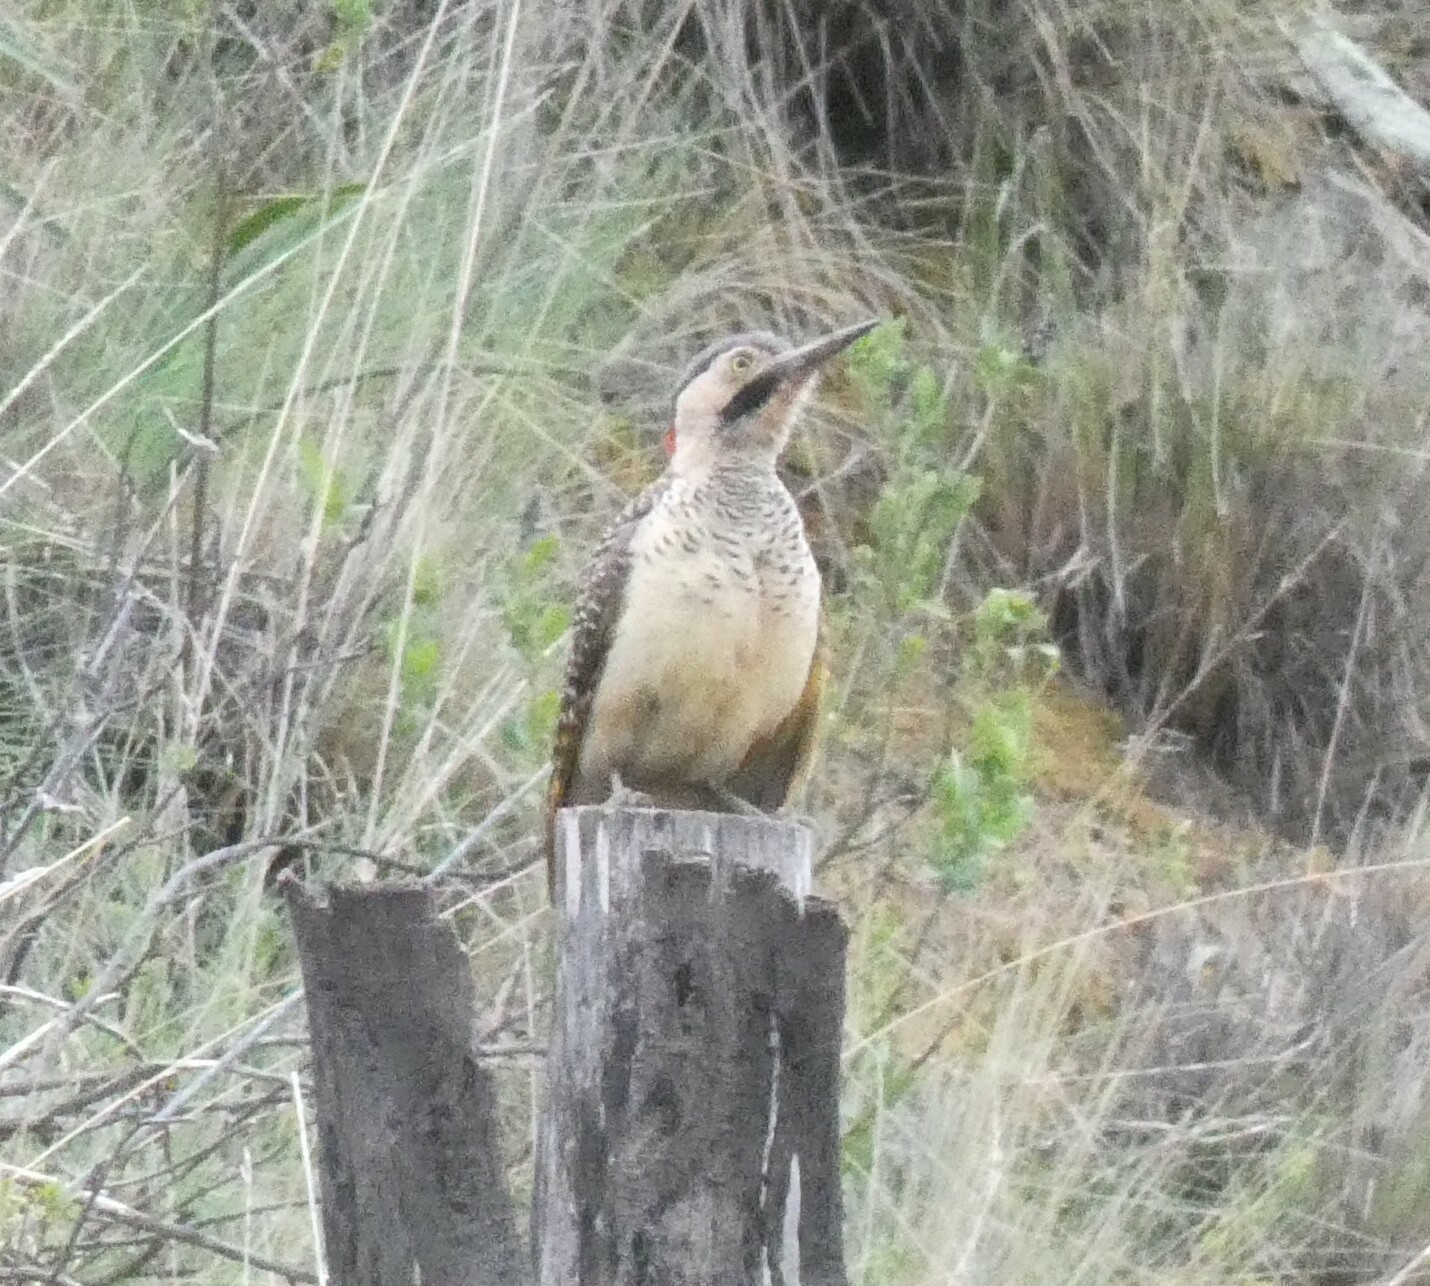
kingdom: Animalia
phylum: Chordata
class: Aves
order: Piciformes
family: Picidae
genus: Colaptes
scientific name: Colaptes rupicola
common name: Andean flicker
